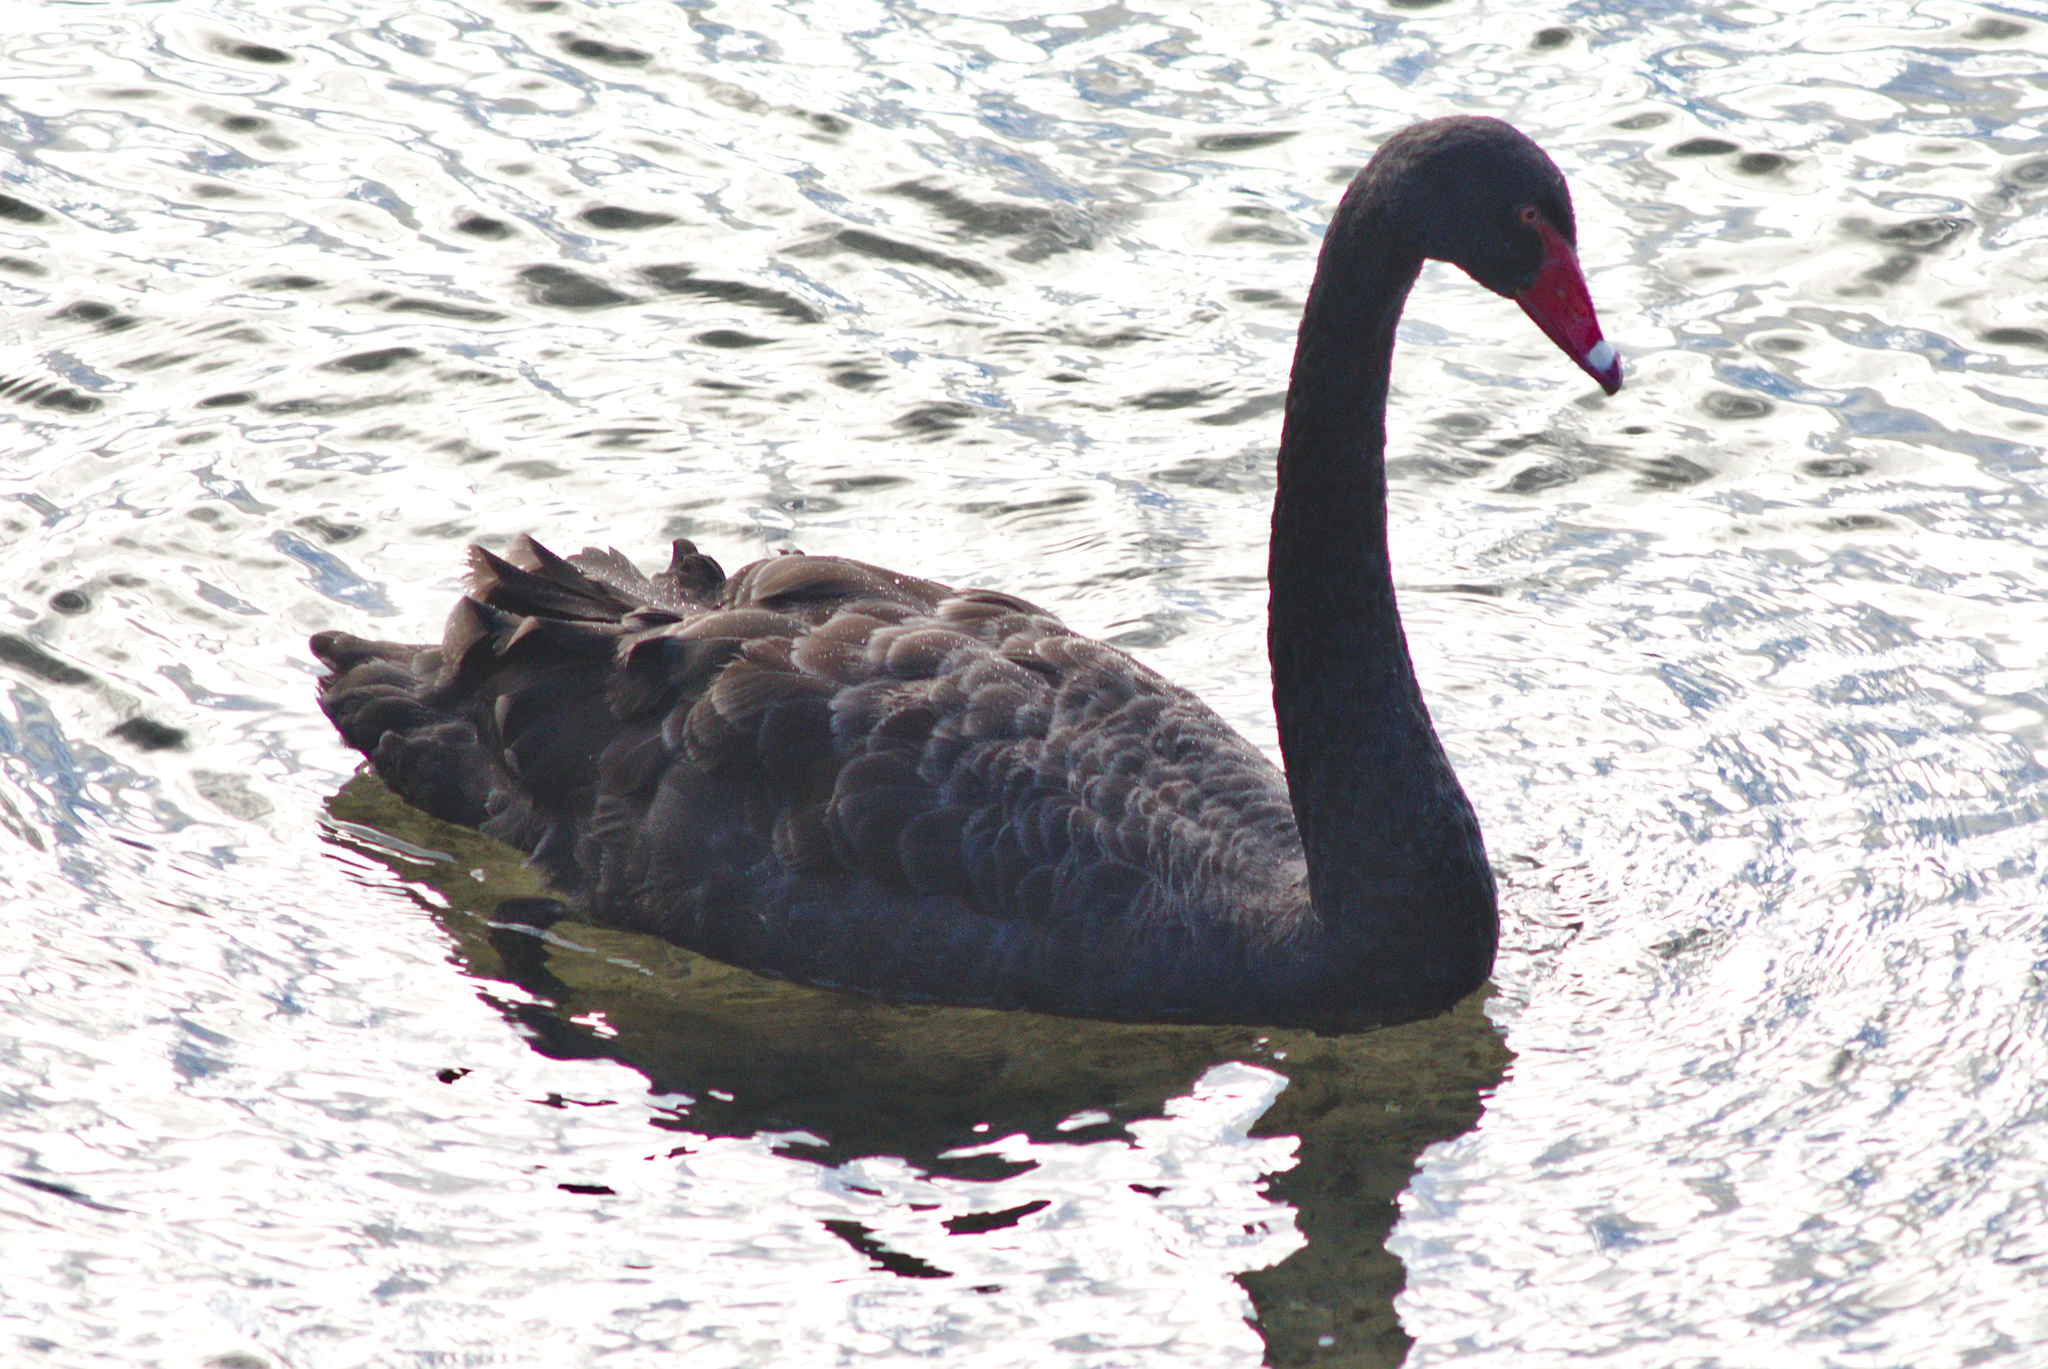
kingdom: Animalia
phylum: Chordata
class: Aves
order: Anseriformes
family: Anatidae
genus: Cygnus
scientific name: Cygnus atratus
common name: Black swan
